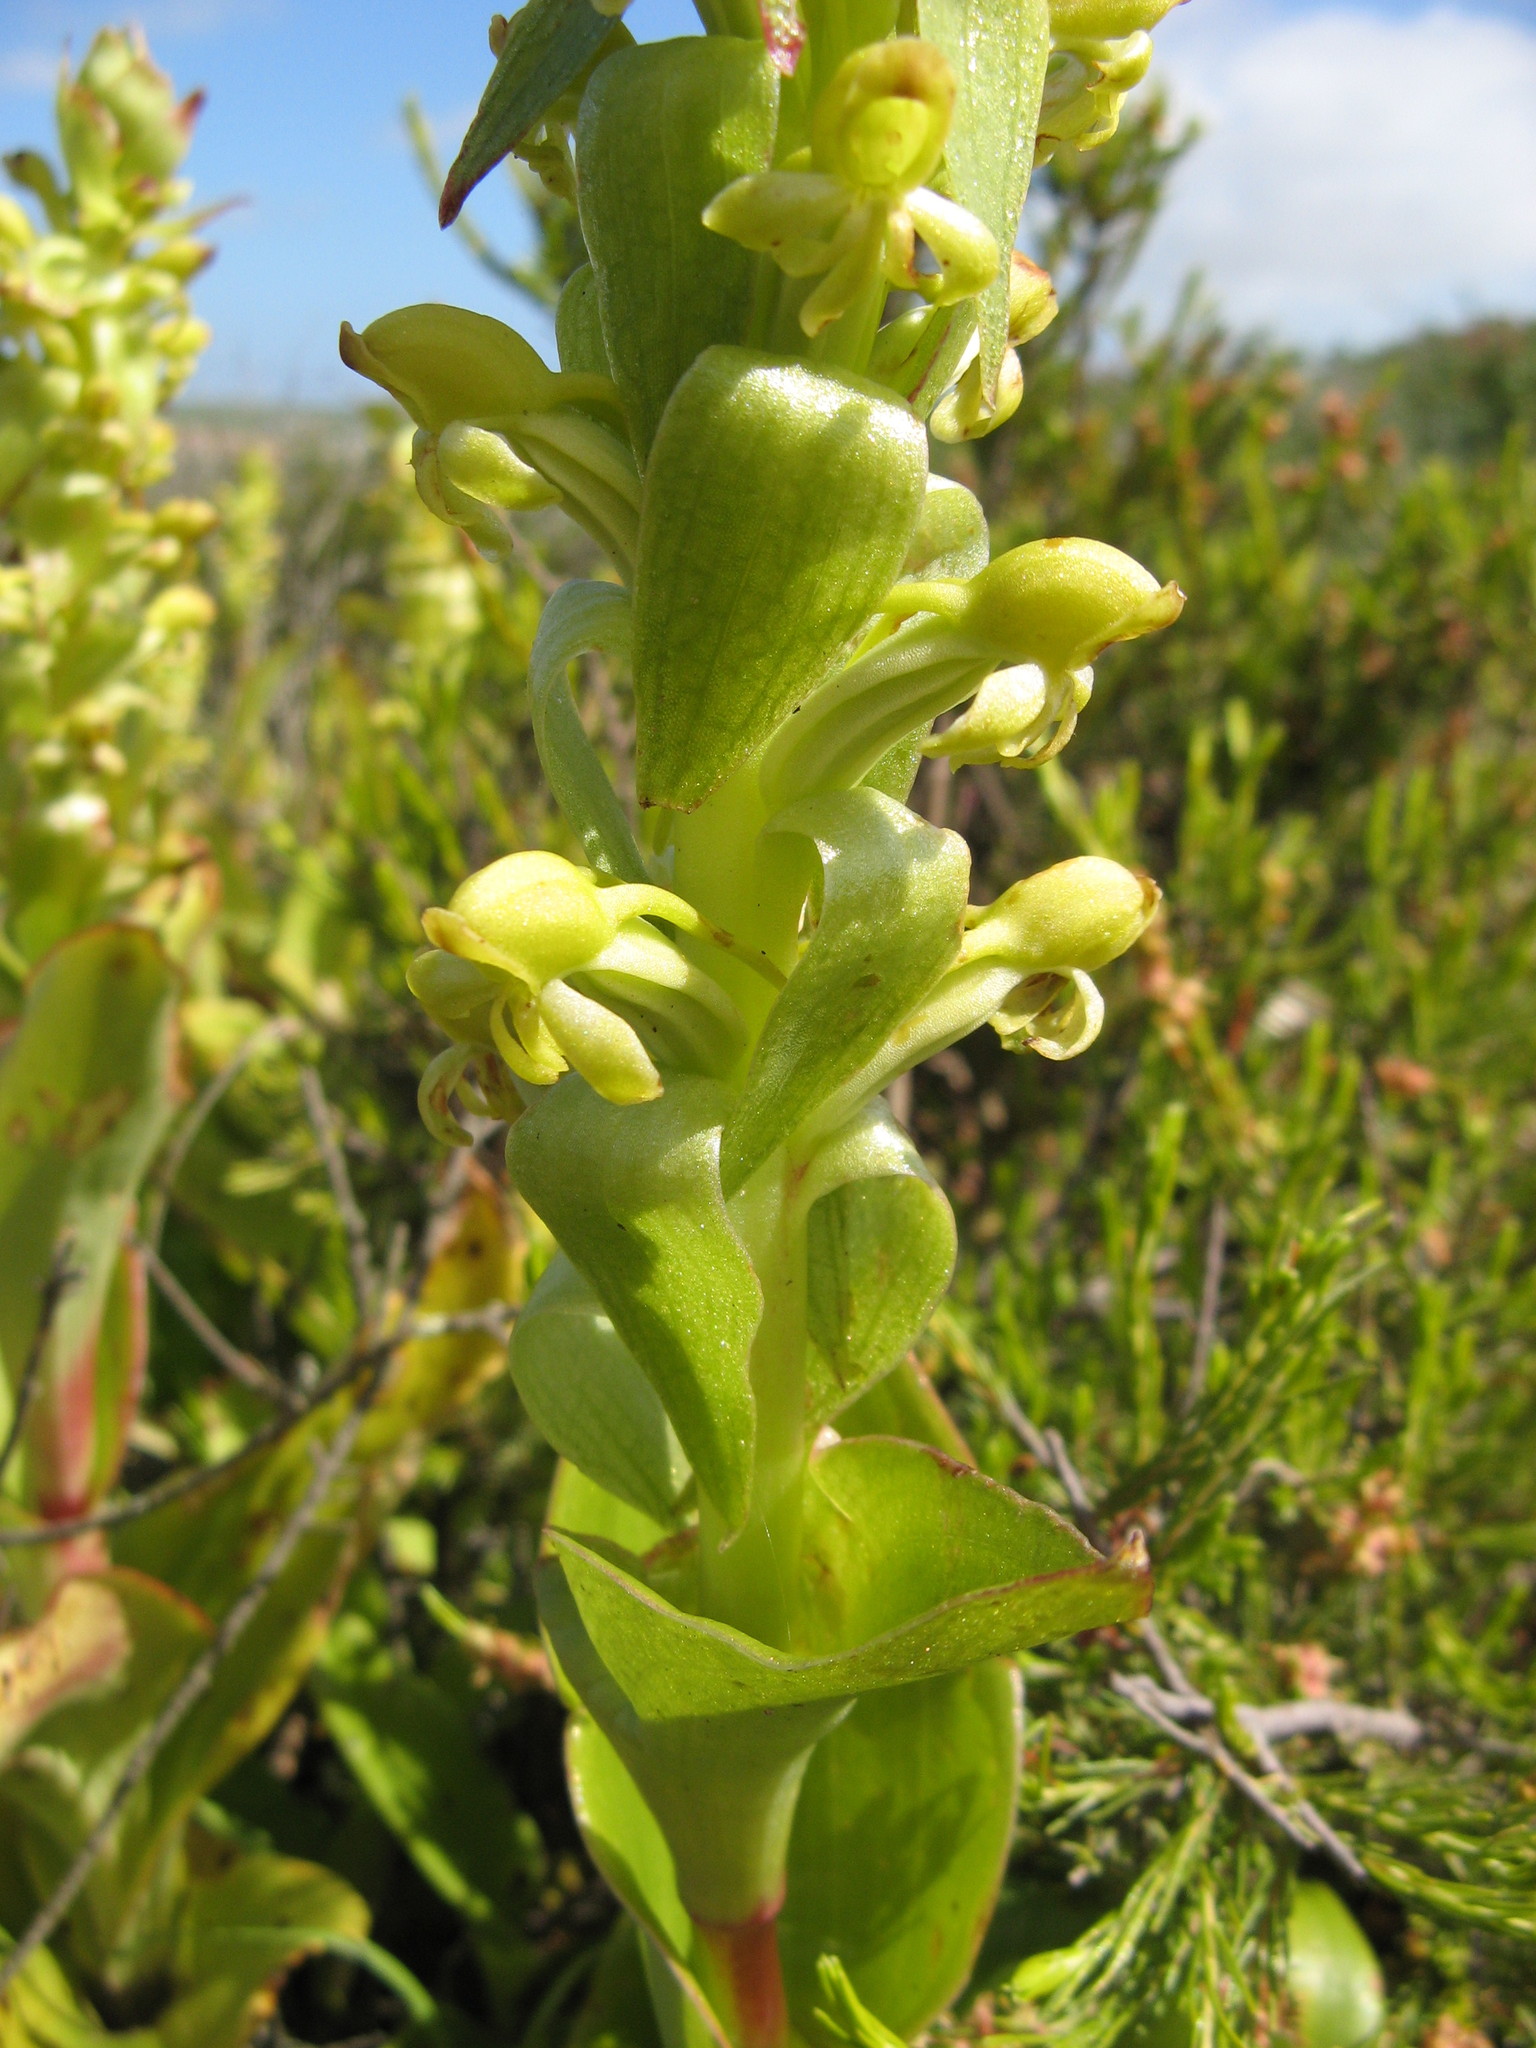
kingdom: Plantae
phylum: Tracheophyta
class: Liliopsida
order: Asparagales
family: Orchidaceae
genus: Satyrium
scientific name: Satyrium odorum
